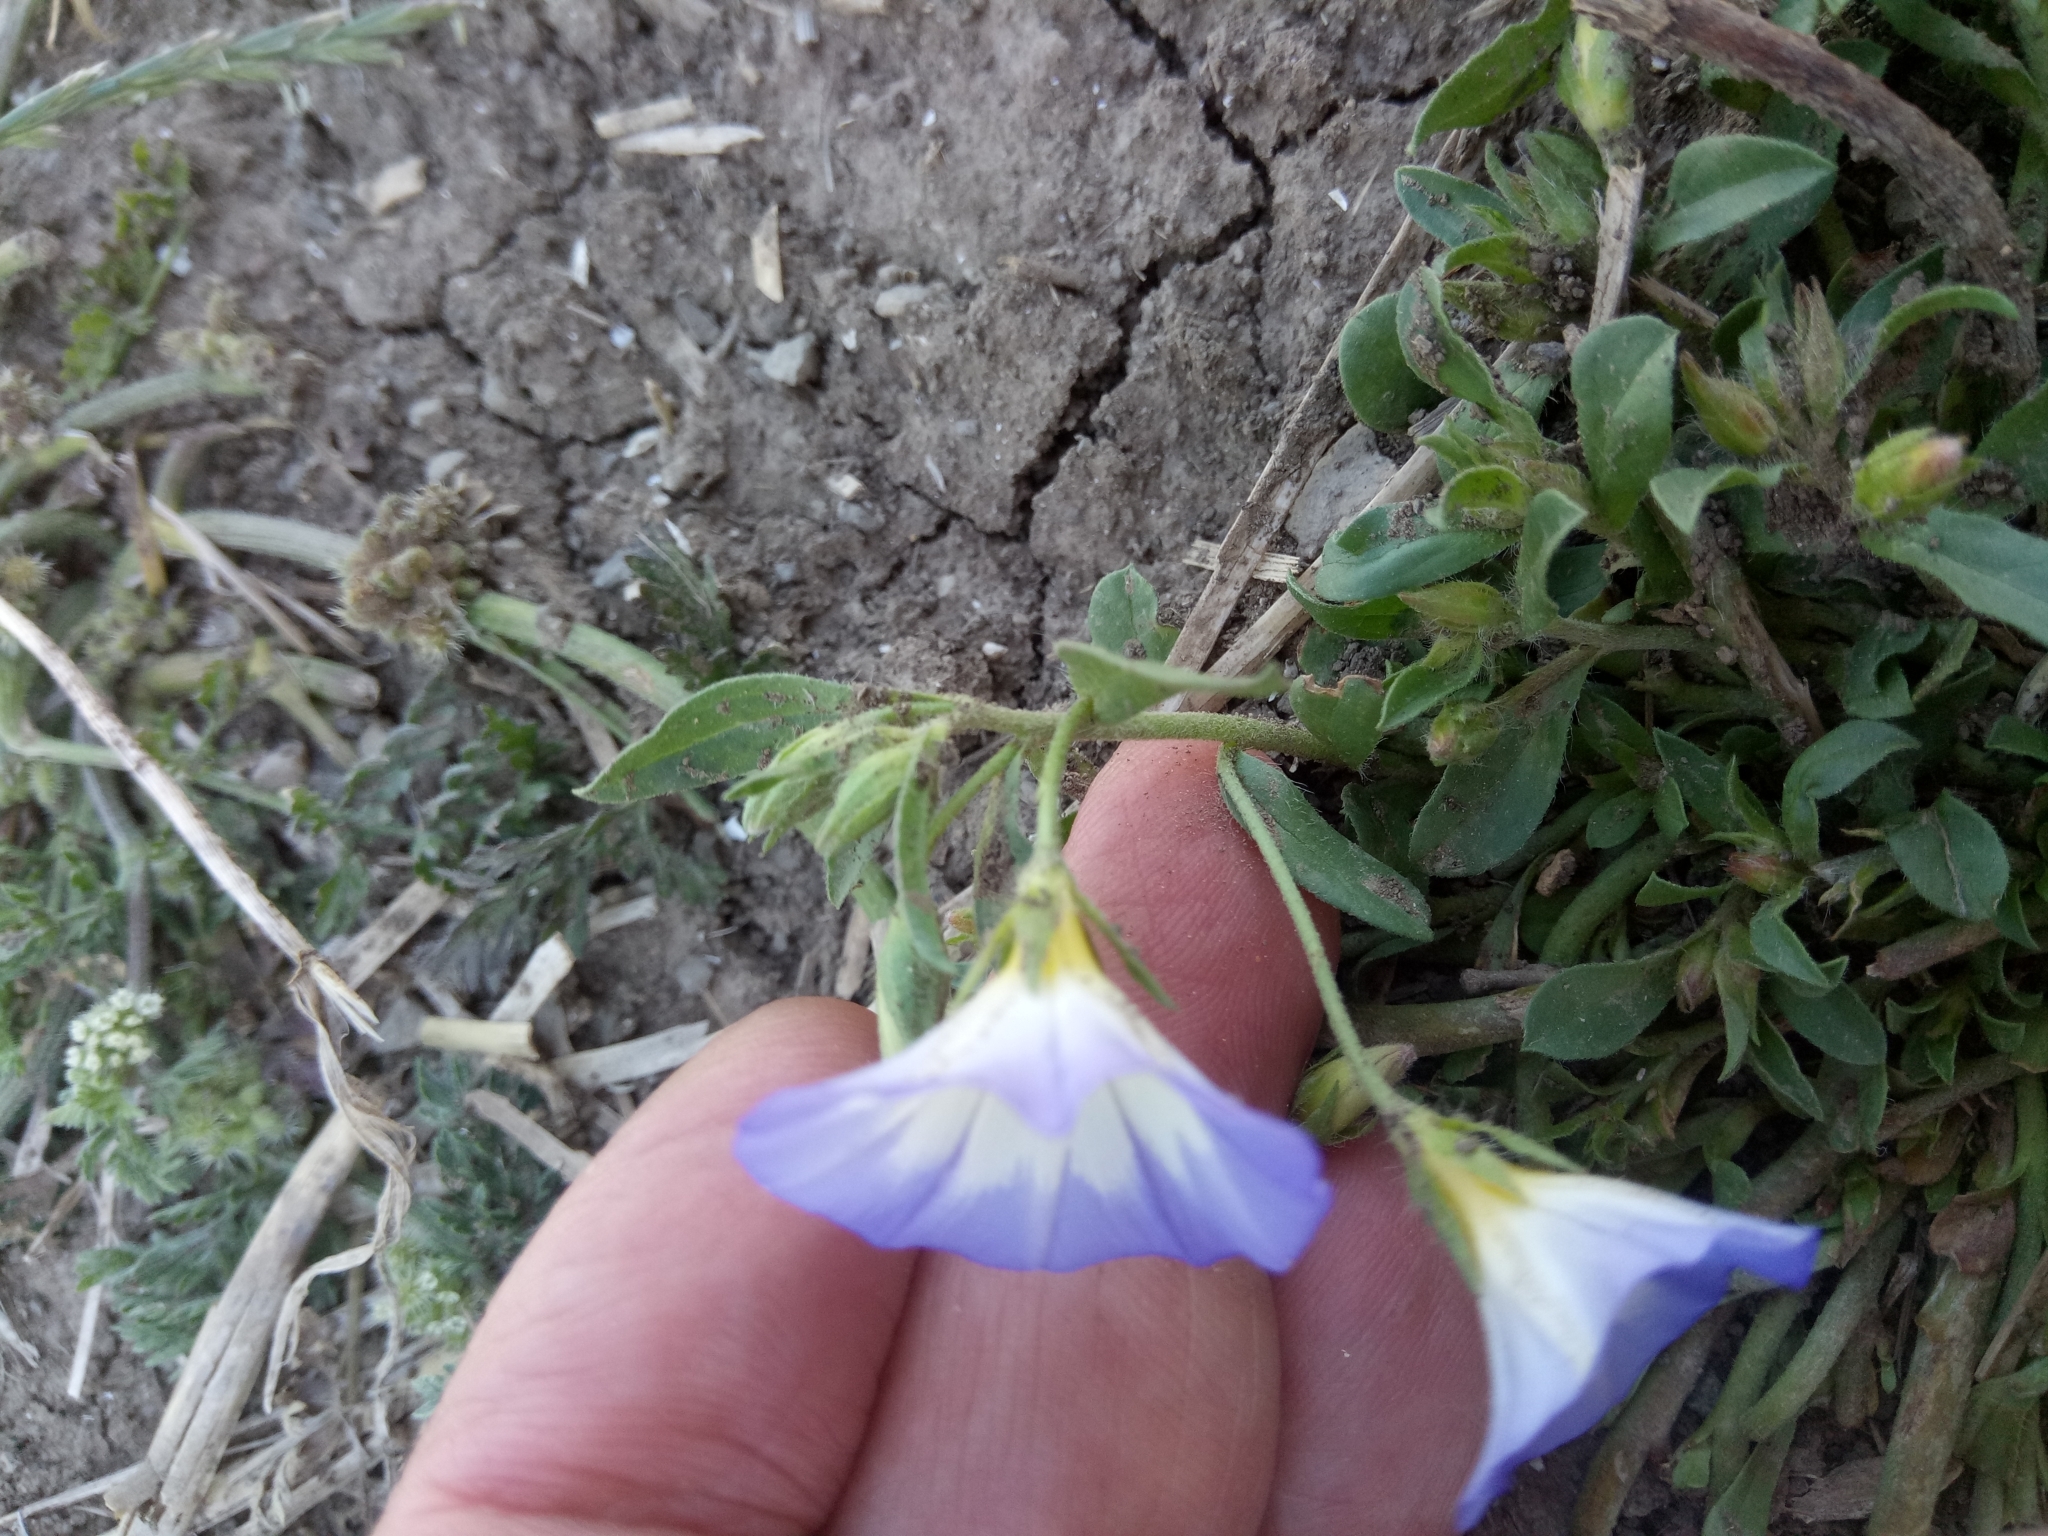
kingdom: Plantae
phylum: Tracheophyta
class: Magnoliopsida
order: Solanales
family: Convolvulaceae
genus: Convolvulus
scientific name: Convolvulus tricolor
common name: Dwarf morning-glory
